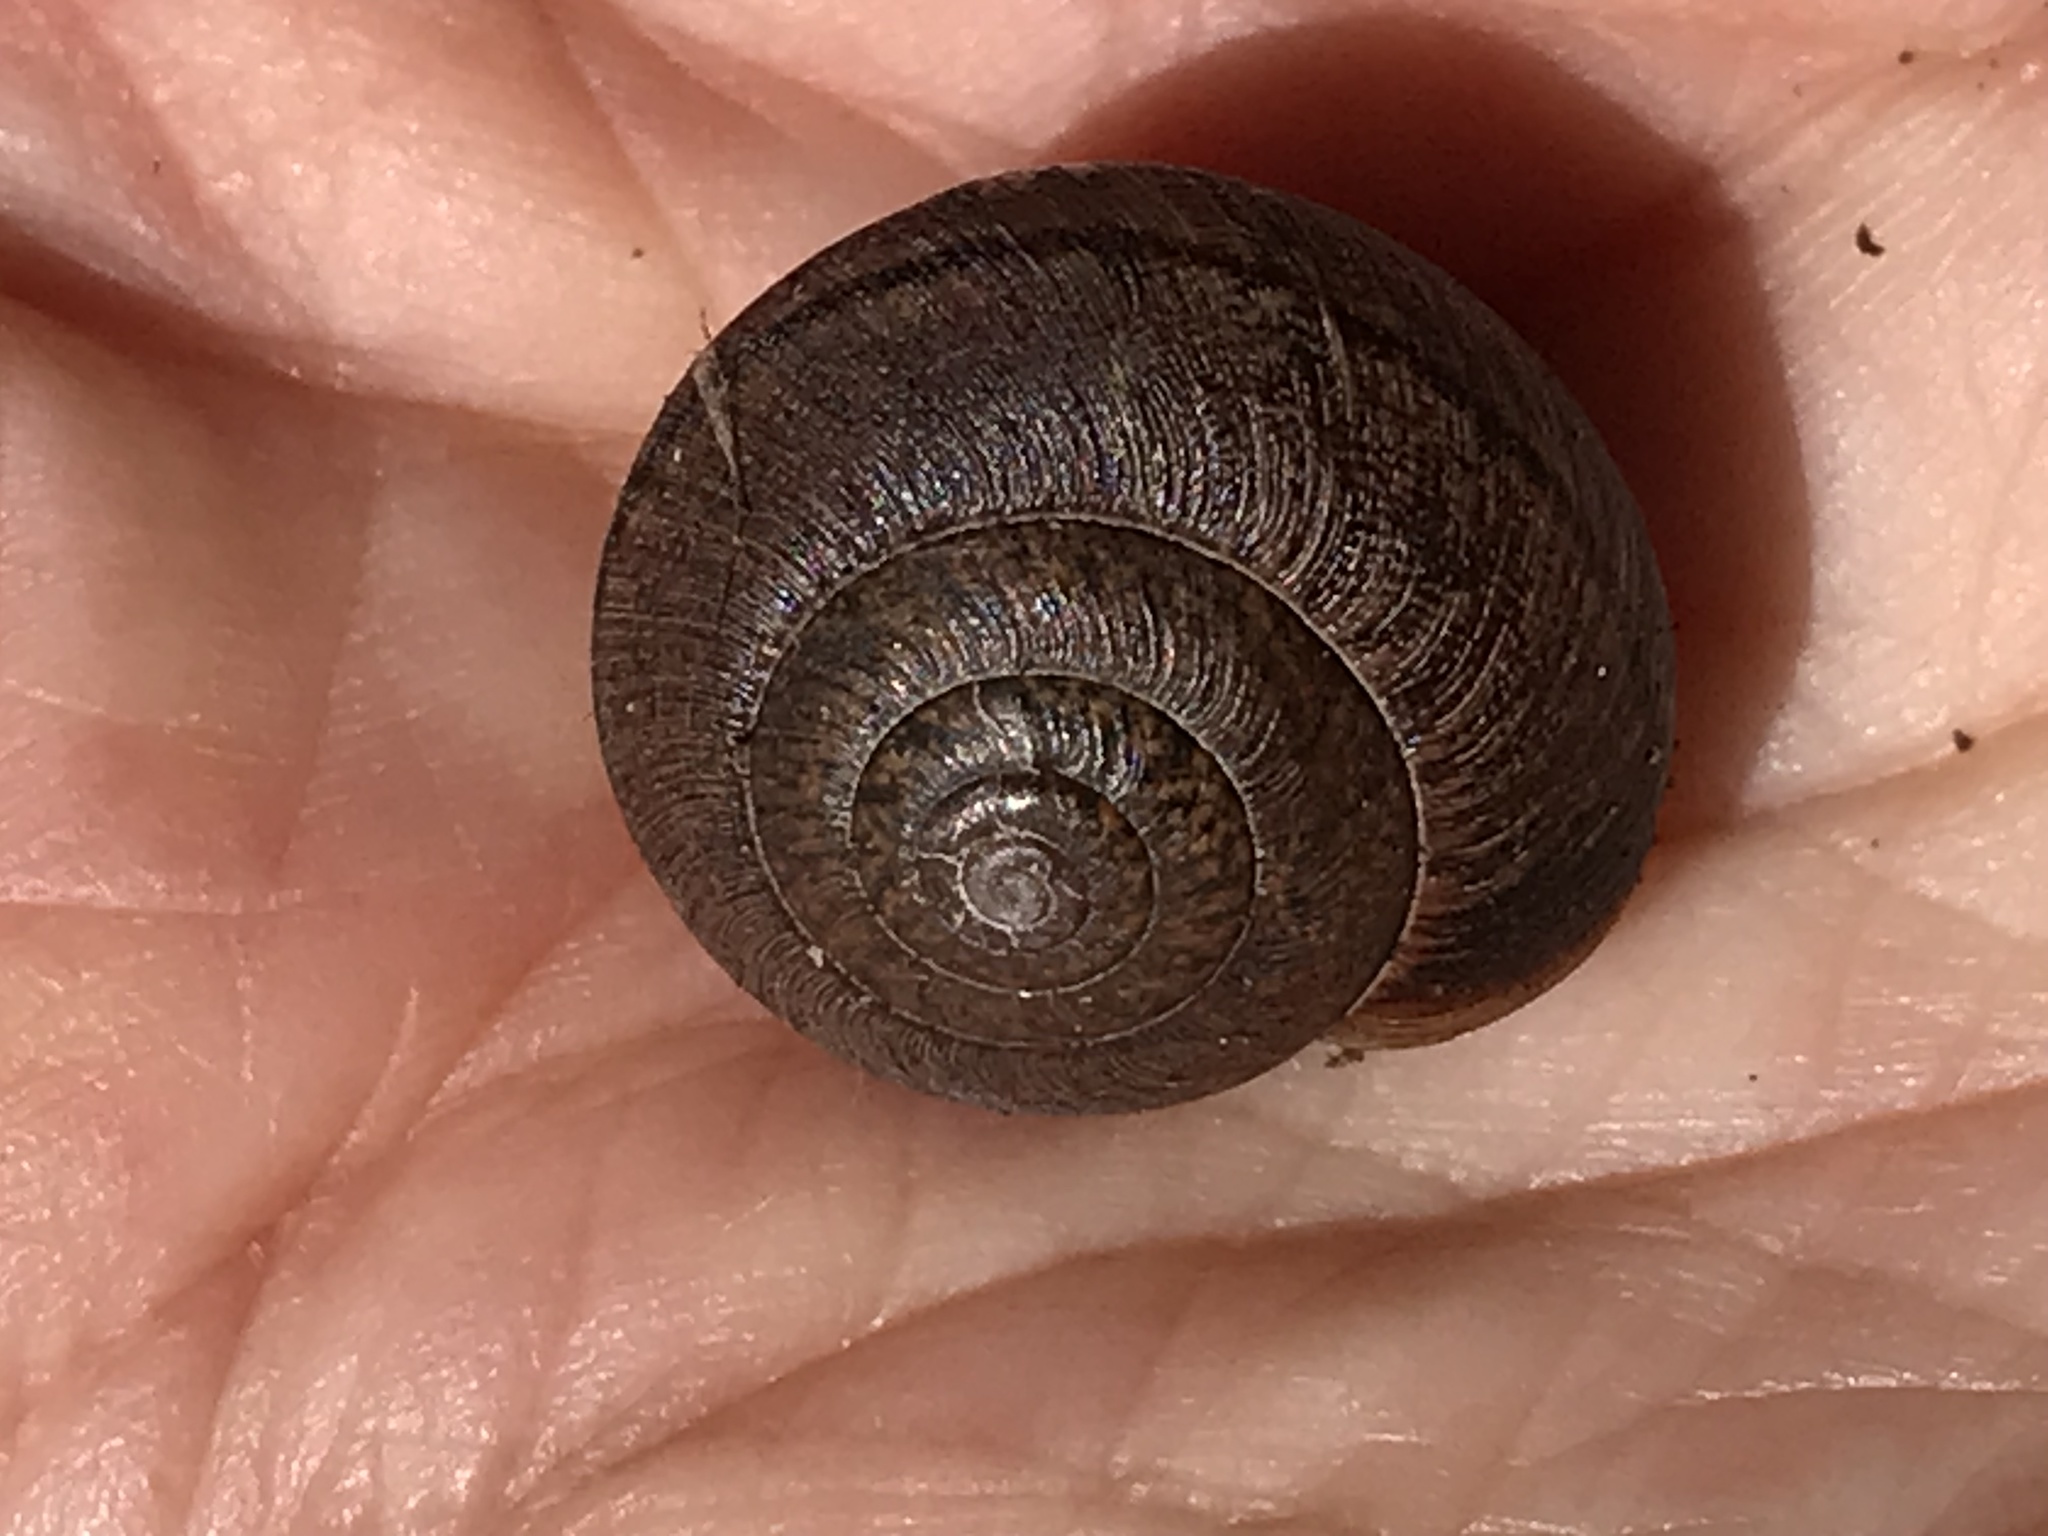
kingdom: Animalia
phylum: Mollusca
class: Gastropoda
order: Stylommatophora
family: Xanthonychidae
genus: Helminthoglypta
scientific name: Helminthoglypta nickliniana
